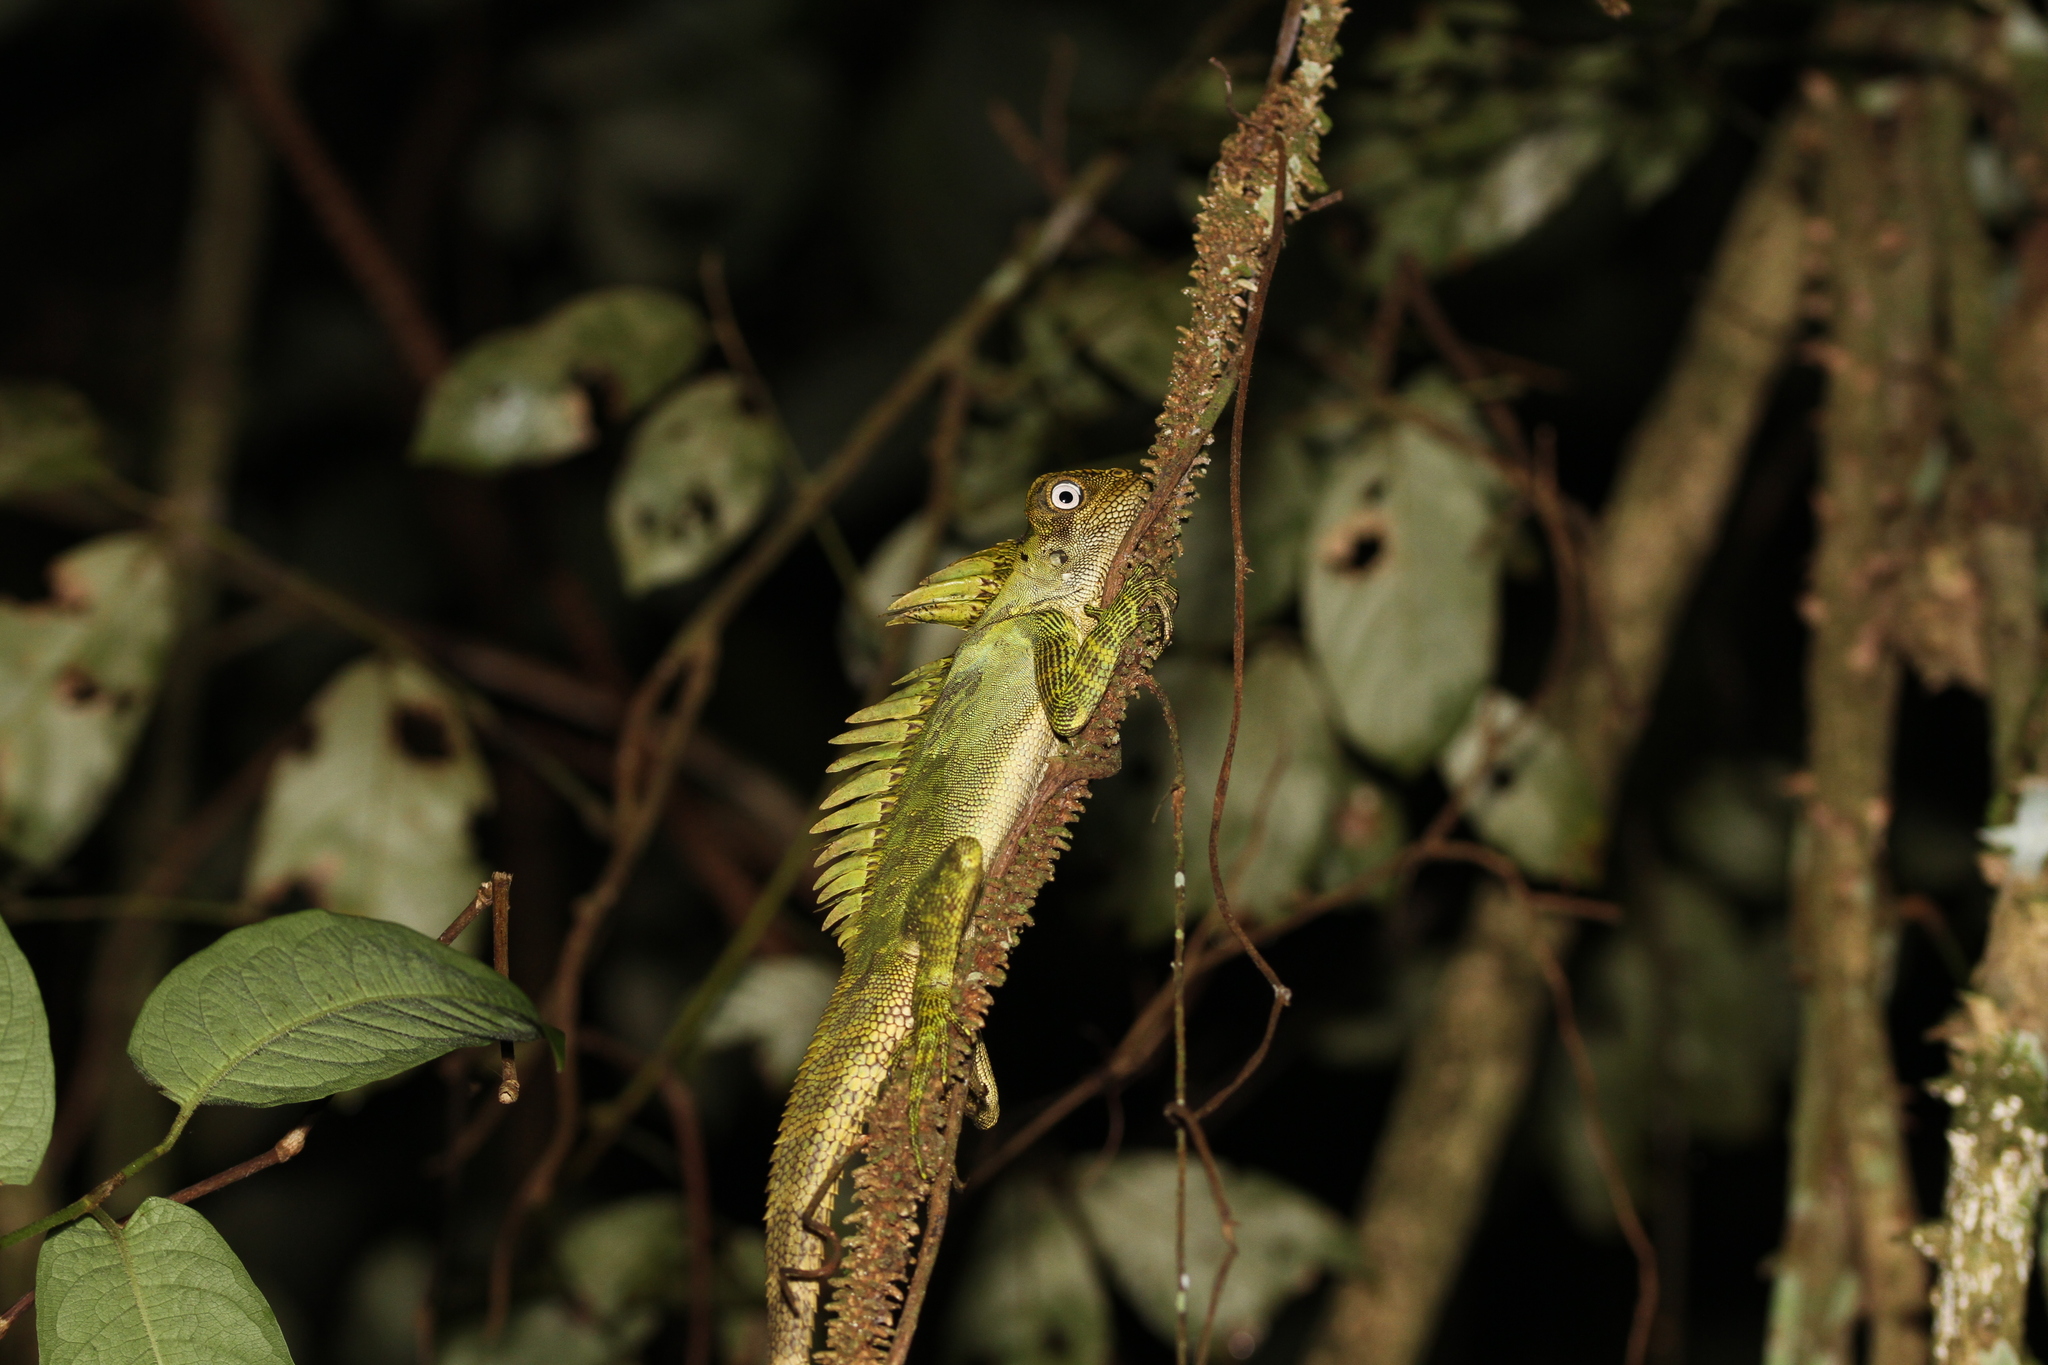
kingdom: Animalia
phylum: Chordata
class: Squamata
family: Agamidae
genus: Gonocephalus
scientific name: Gonocephalus klossi
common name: Kloss' forest dragon
